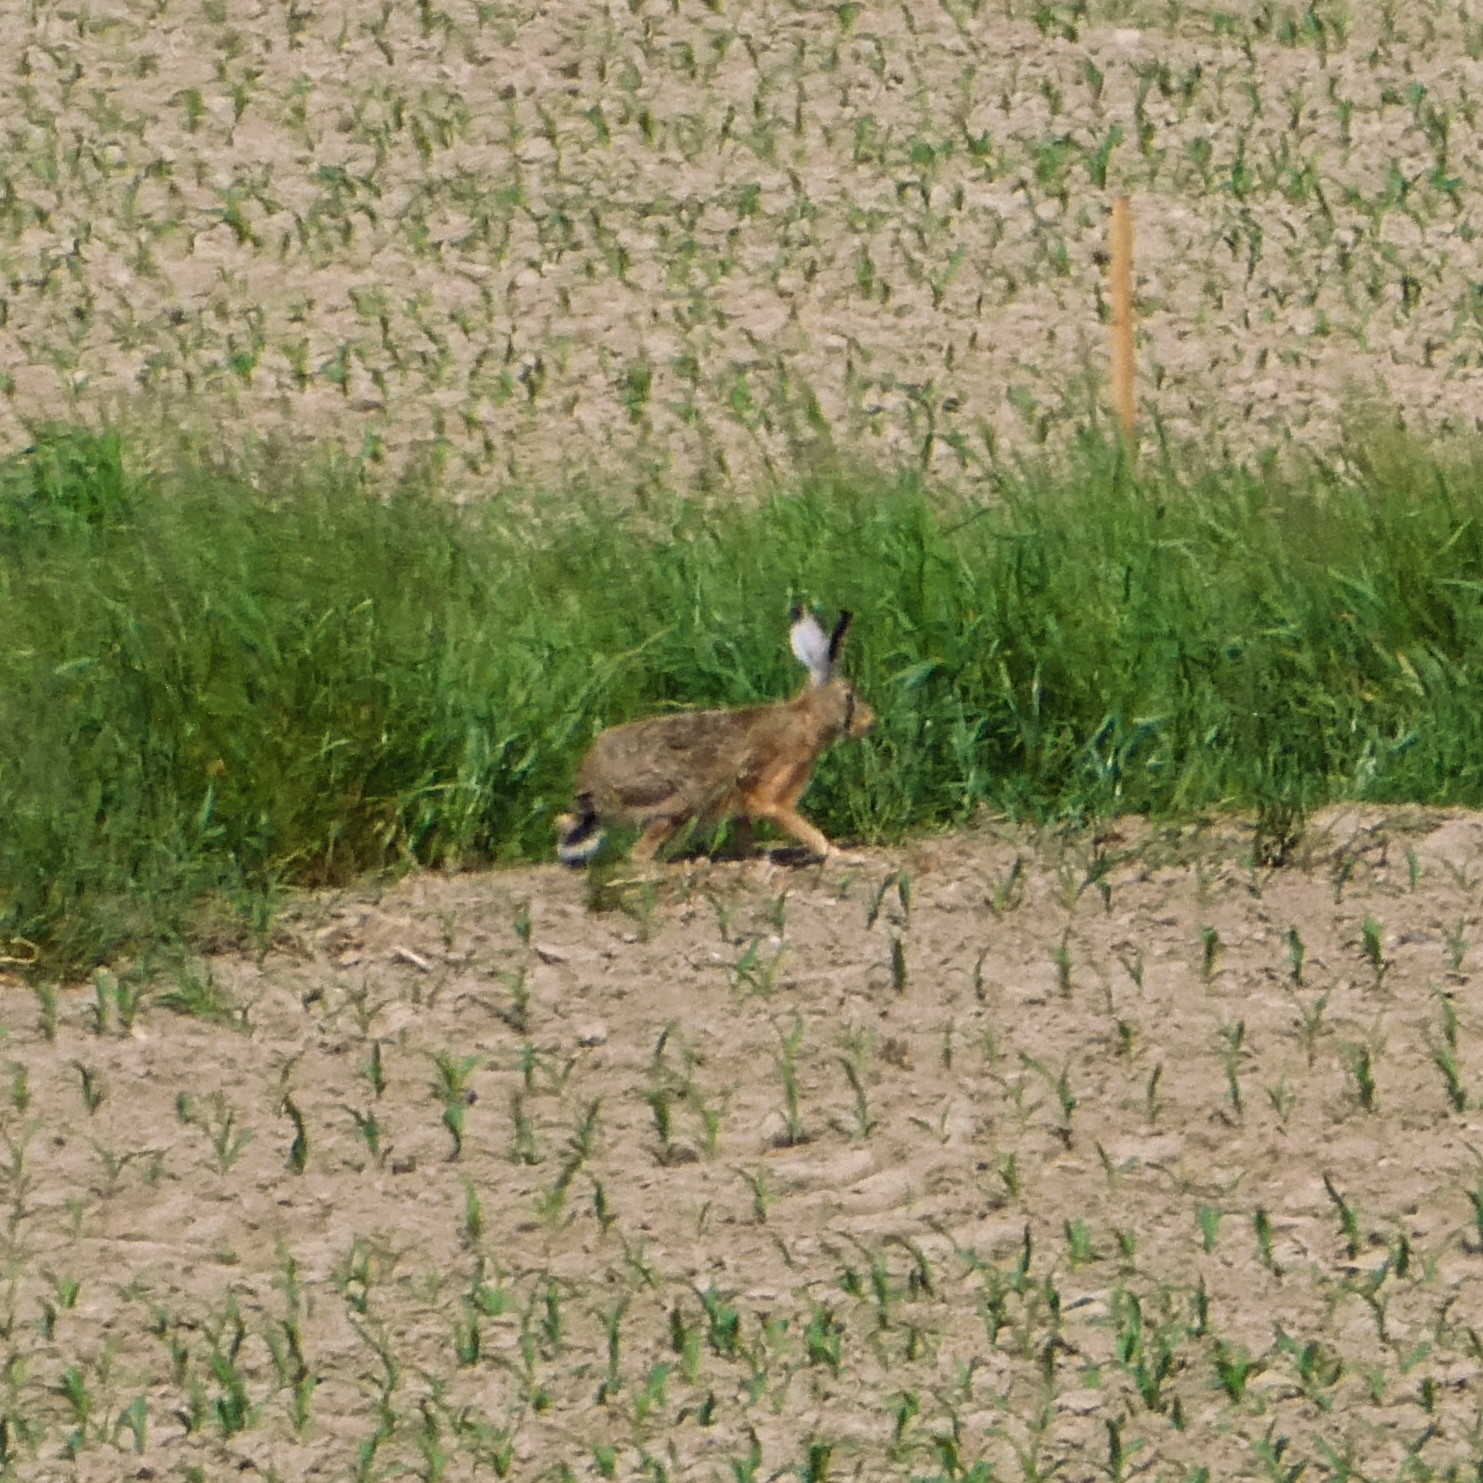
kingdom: Animalia
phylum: Chordata
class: Mammalia
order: Lagomorpha
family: Leporidae
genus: Lepus
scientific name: Lepus europaeus
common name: European hare
